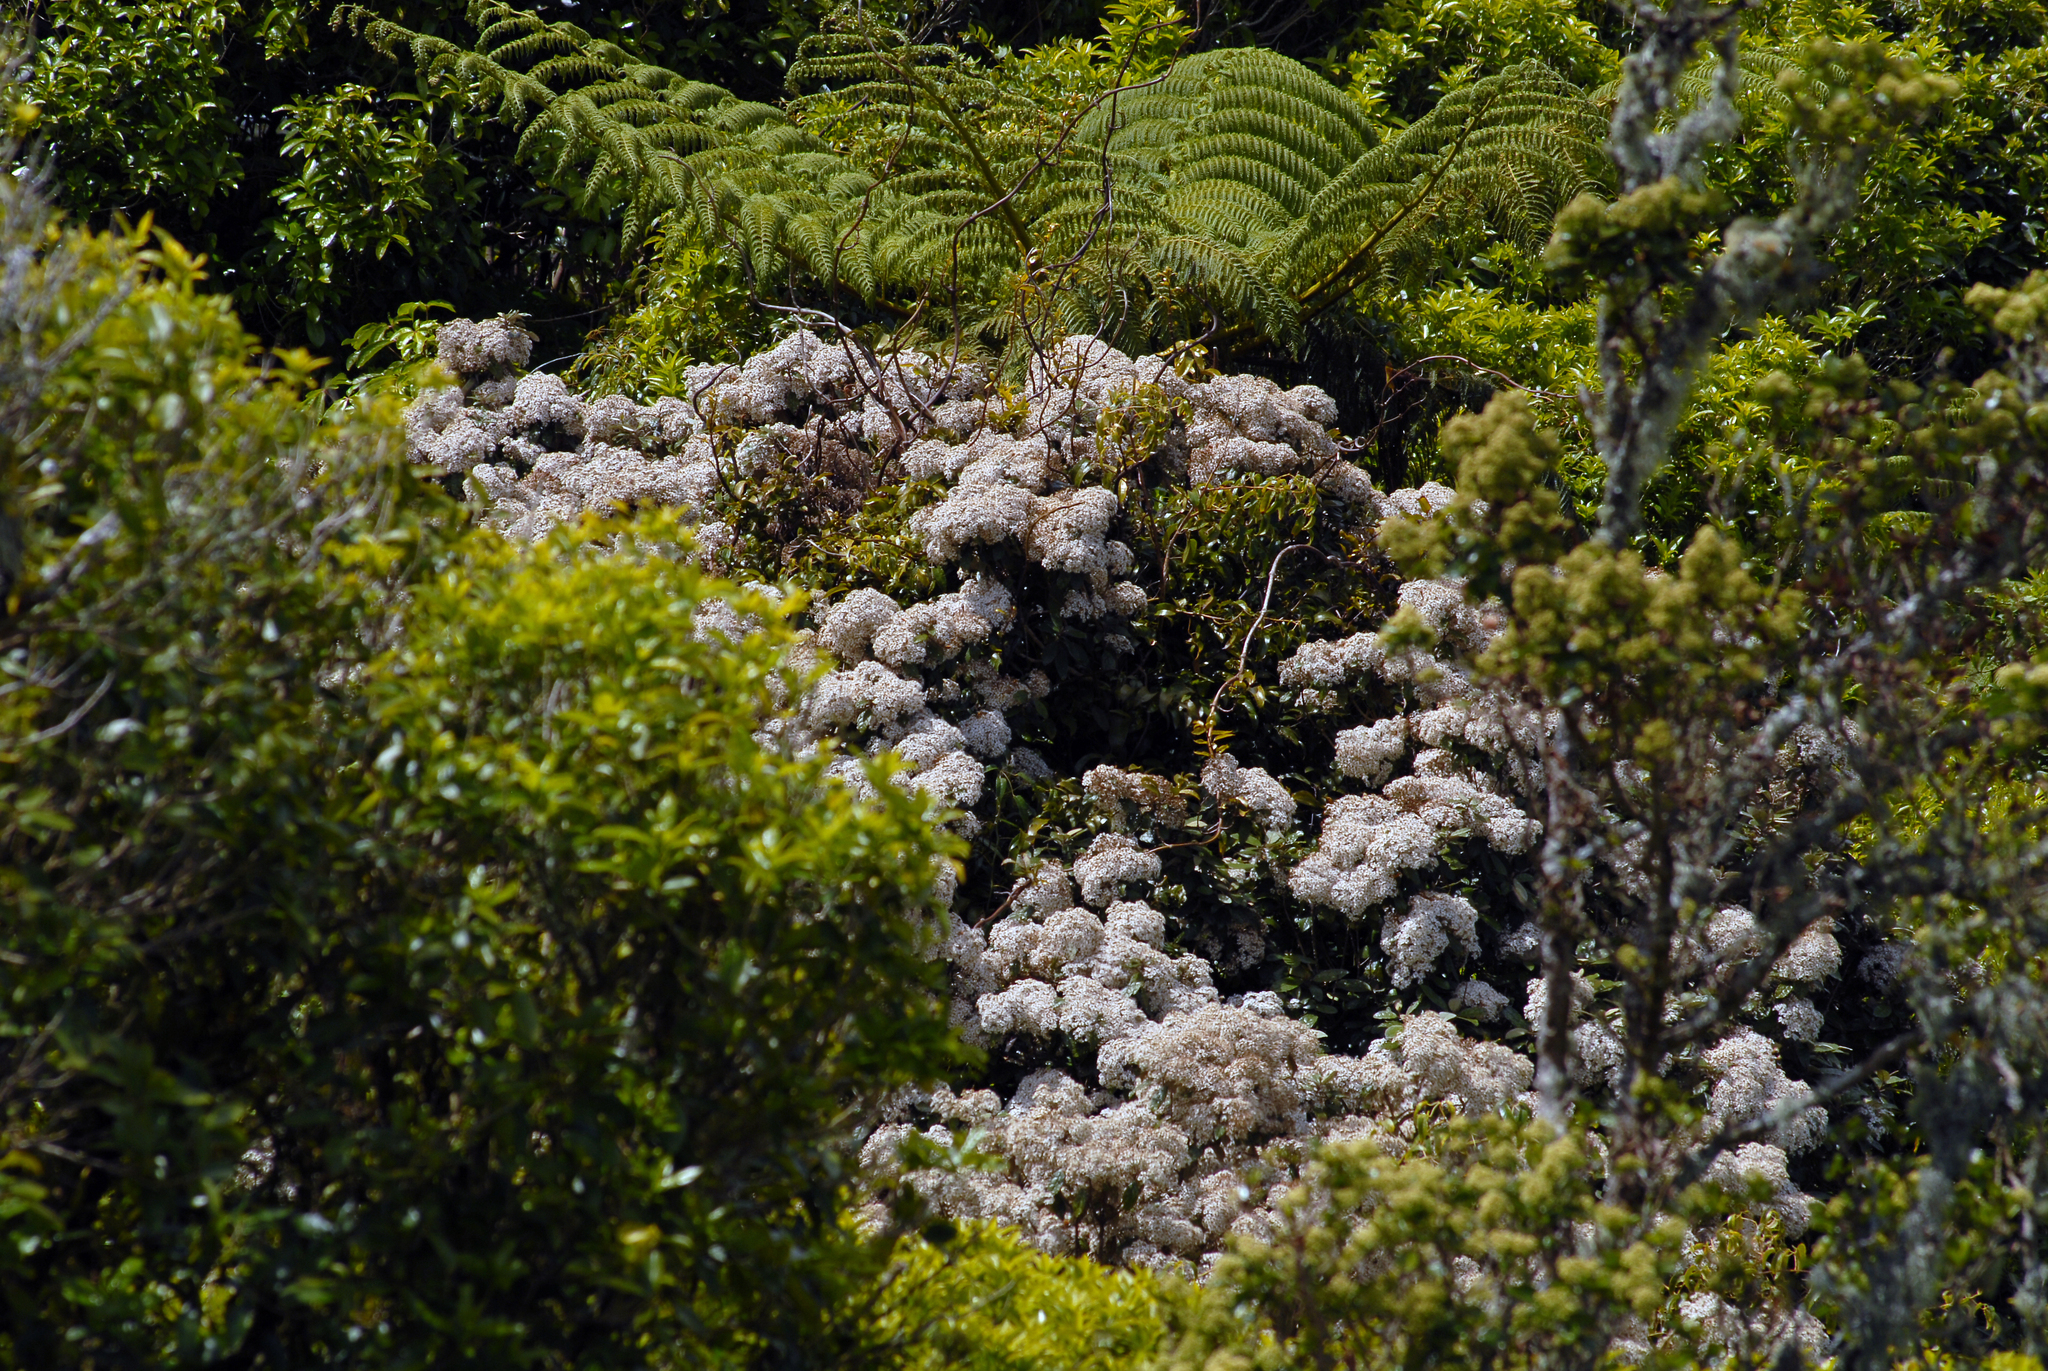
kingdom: Plantae
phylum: Tracheophyta
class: Magnoliopsida
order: Asterales
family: Asteraceae
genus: Olearia
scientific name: Olearia rani
